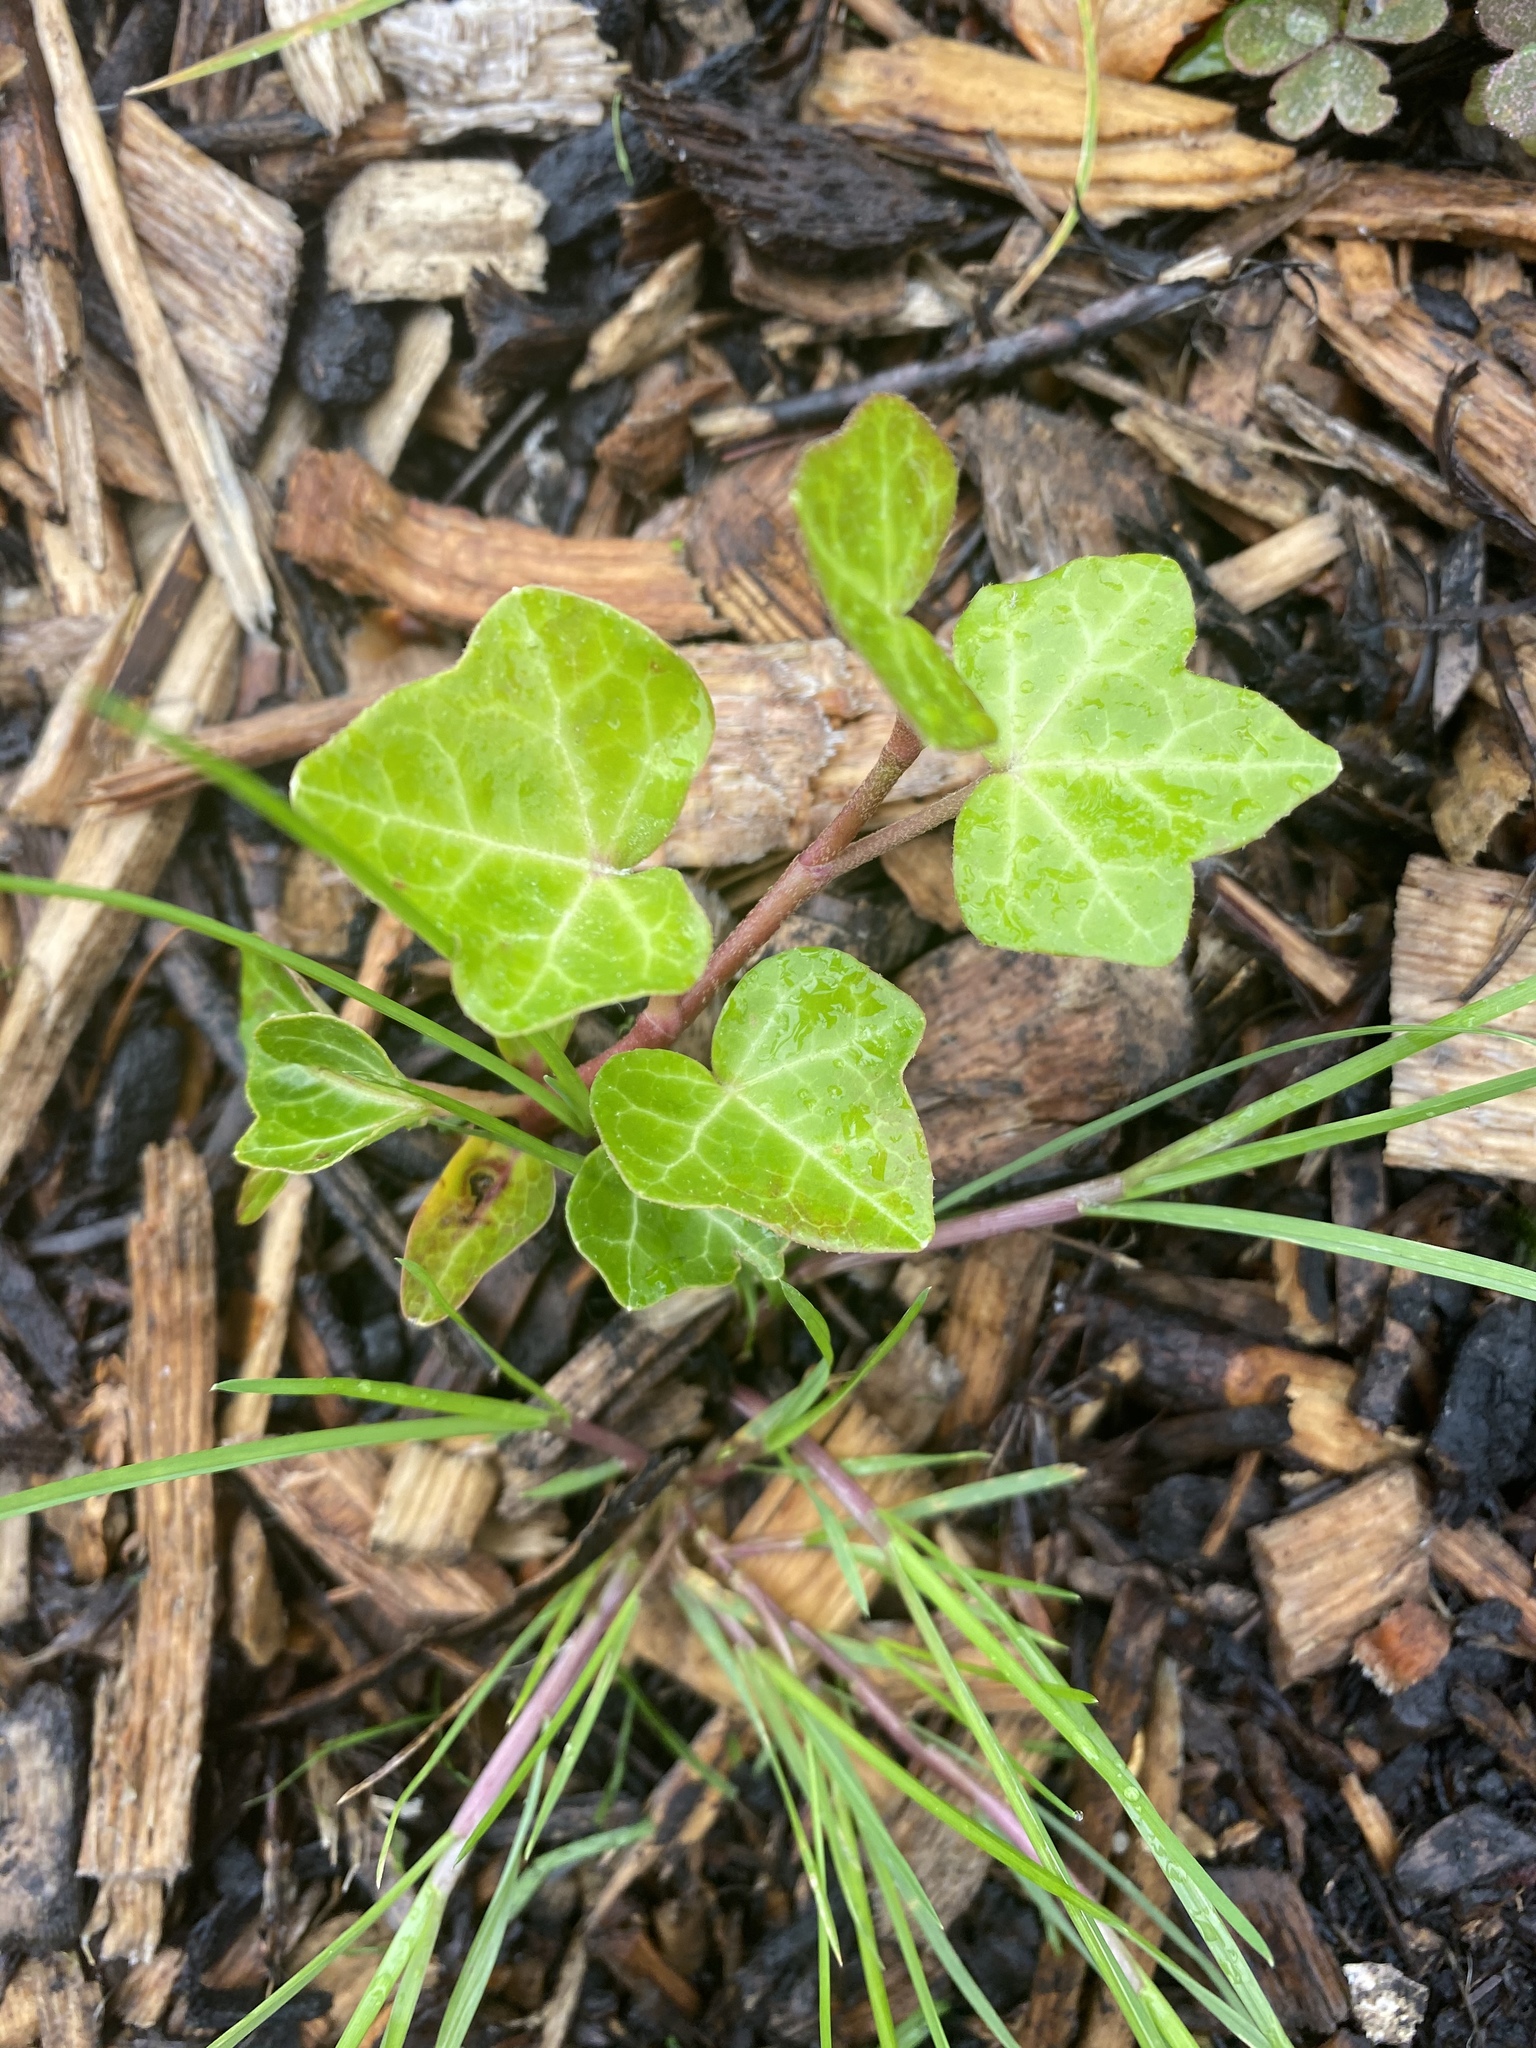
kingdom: Plantae
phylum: Tracheophyta
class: Magnoliopsida
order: Apiales
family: Araliaceae
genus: Hedera
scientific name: Hedera helix
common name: Ivy
